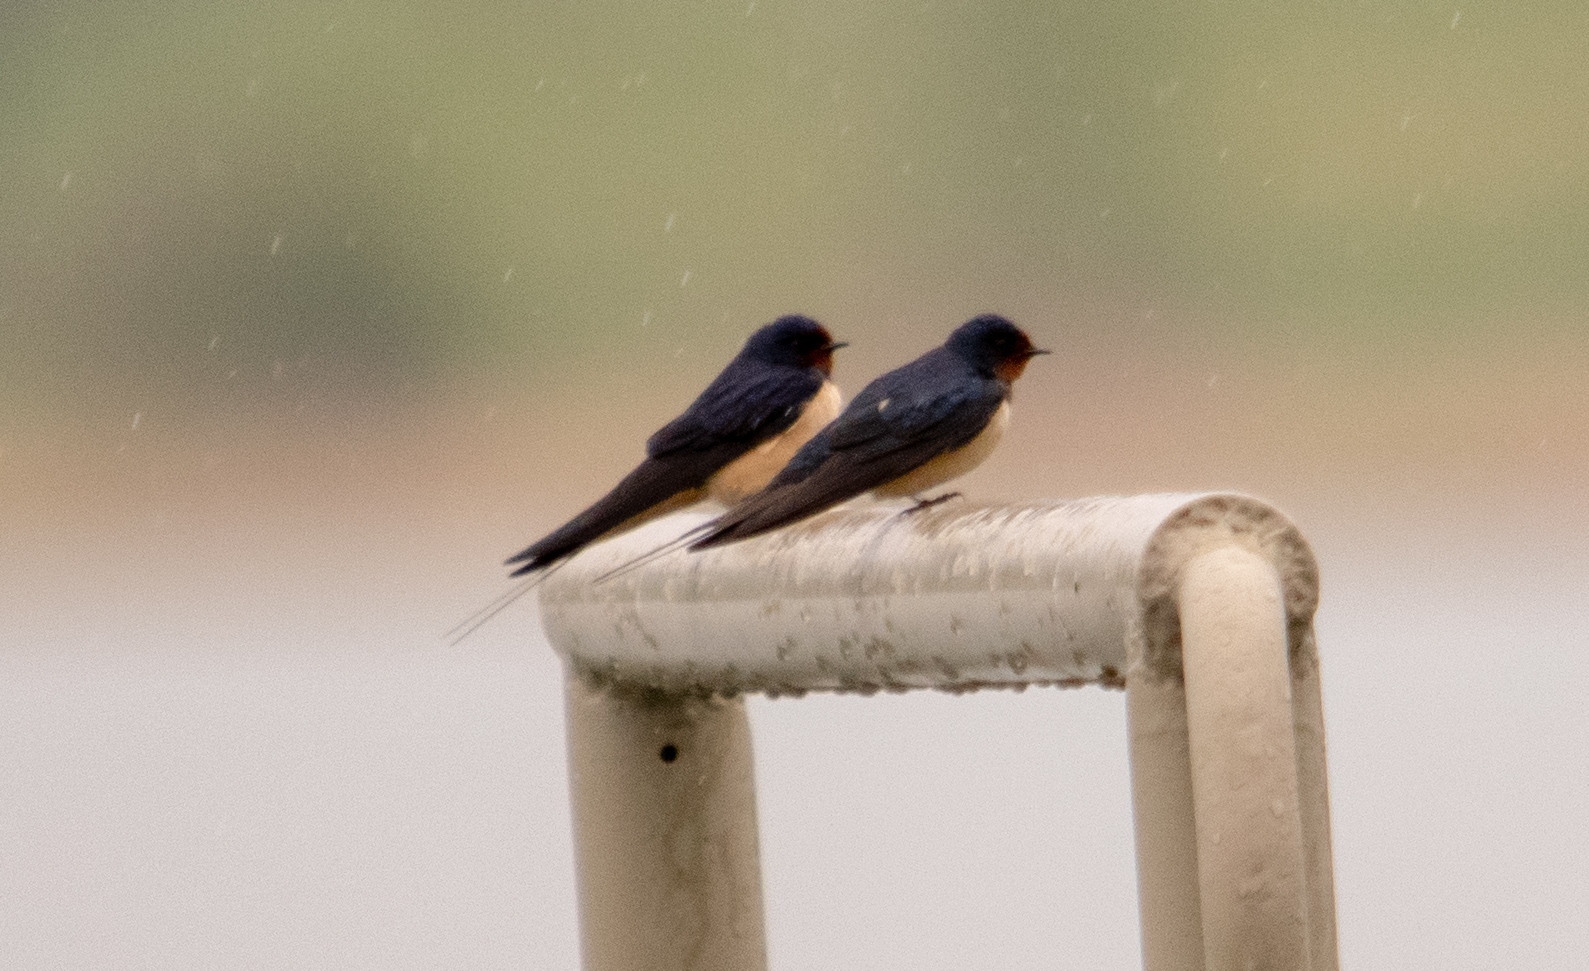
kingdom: Animalia
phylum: Chordata
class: Aves
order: Passeriformes
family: Hirundinidae
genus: Hirundo
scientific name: Hirundo rustica
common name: Barn swallow
